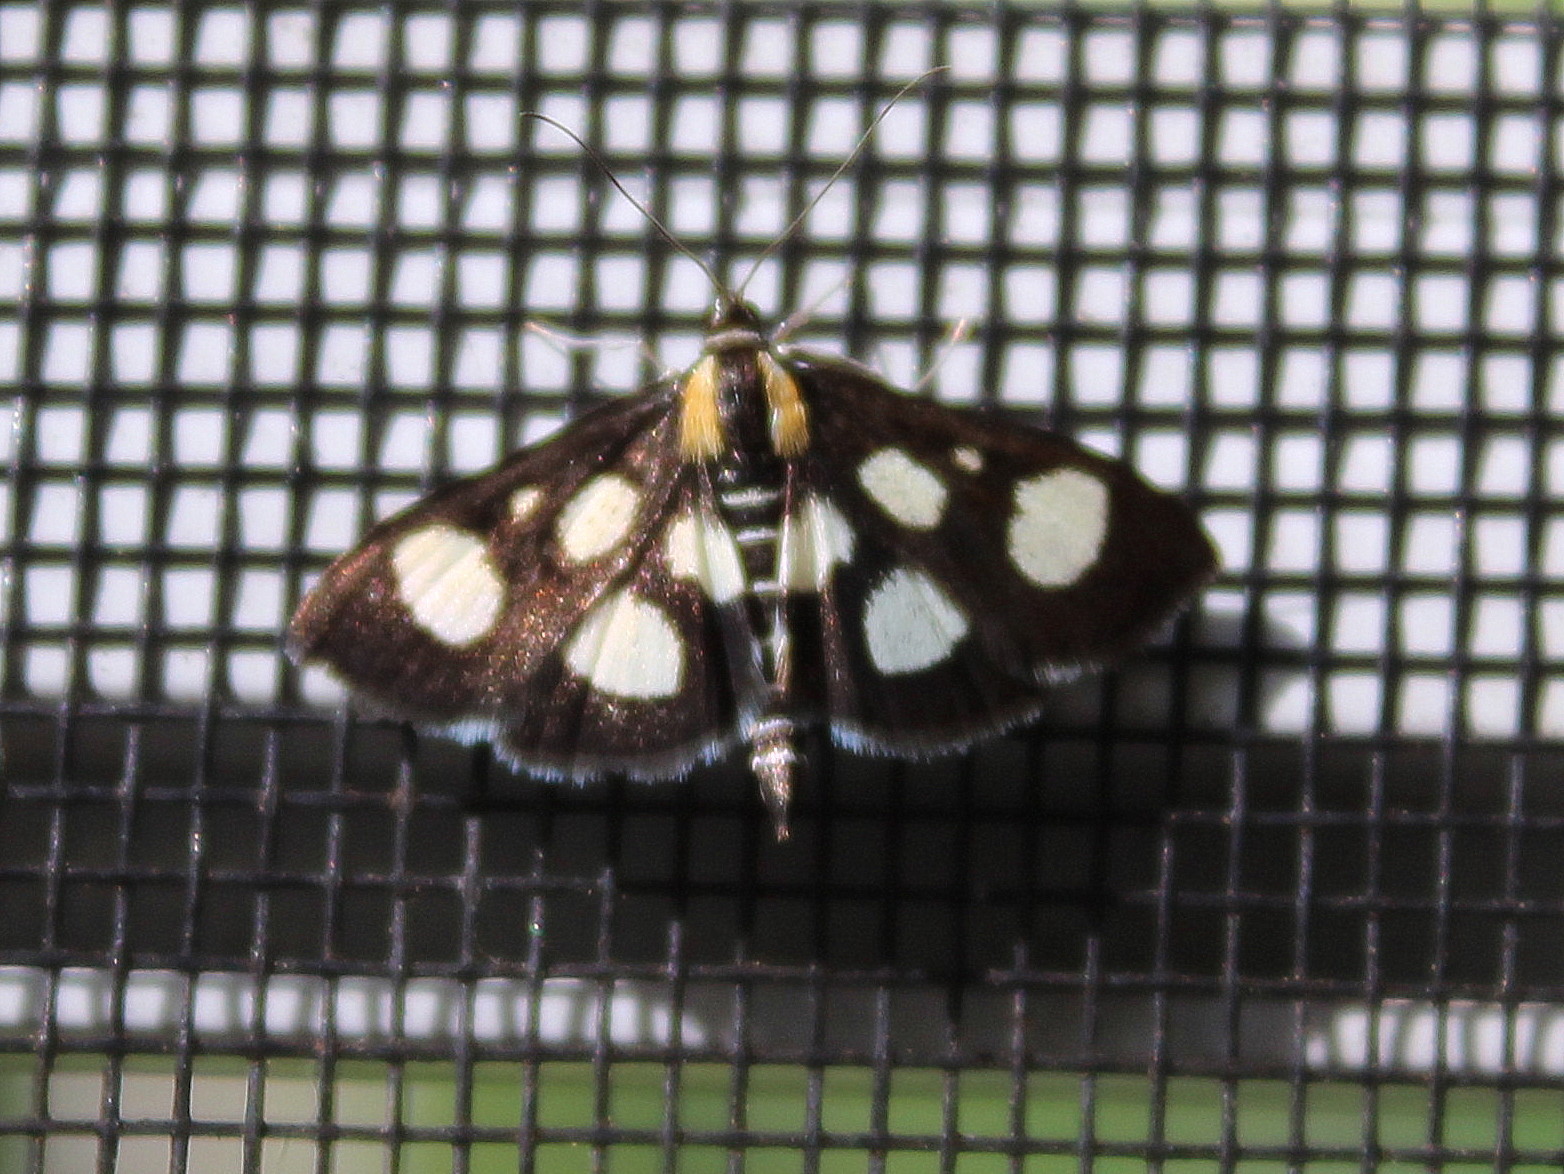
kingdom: Animalia
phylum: Arthropoda
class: Insecta
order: Lepidoptera
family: Crambidae
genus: Anania
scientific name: Anania funebris
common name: White-spotted sable moth
